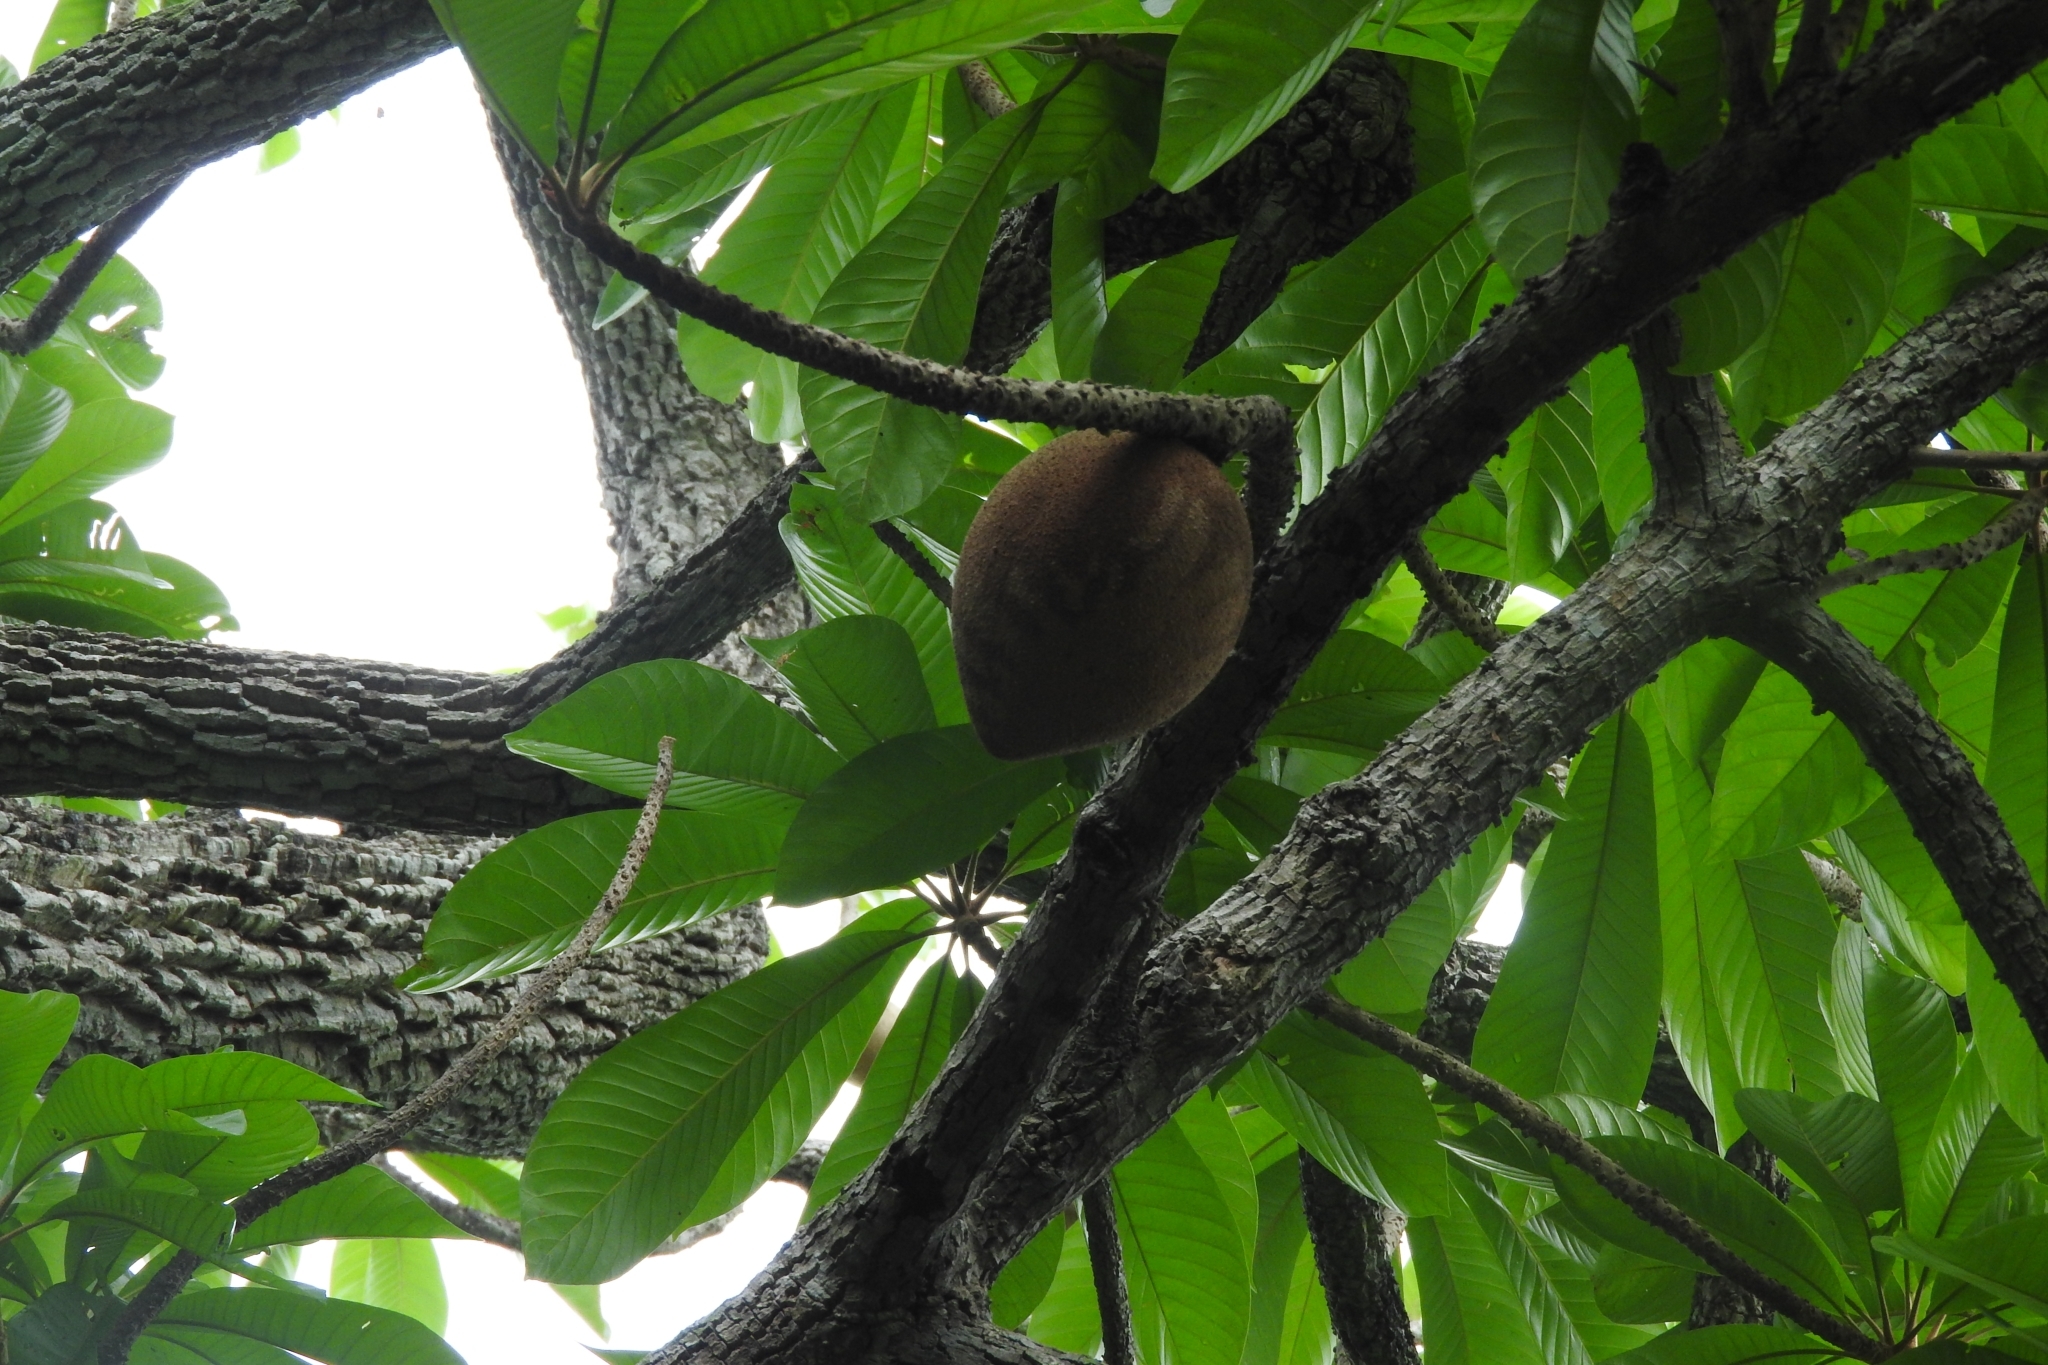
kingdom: Plantae
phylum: Tracheophyta
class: Magnoliopsida
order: Ericales
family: Sapotaceae
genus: Pouteria
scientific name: Pouteria sapota
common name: Mamey
